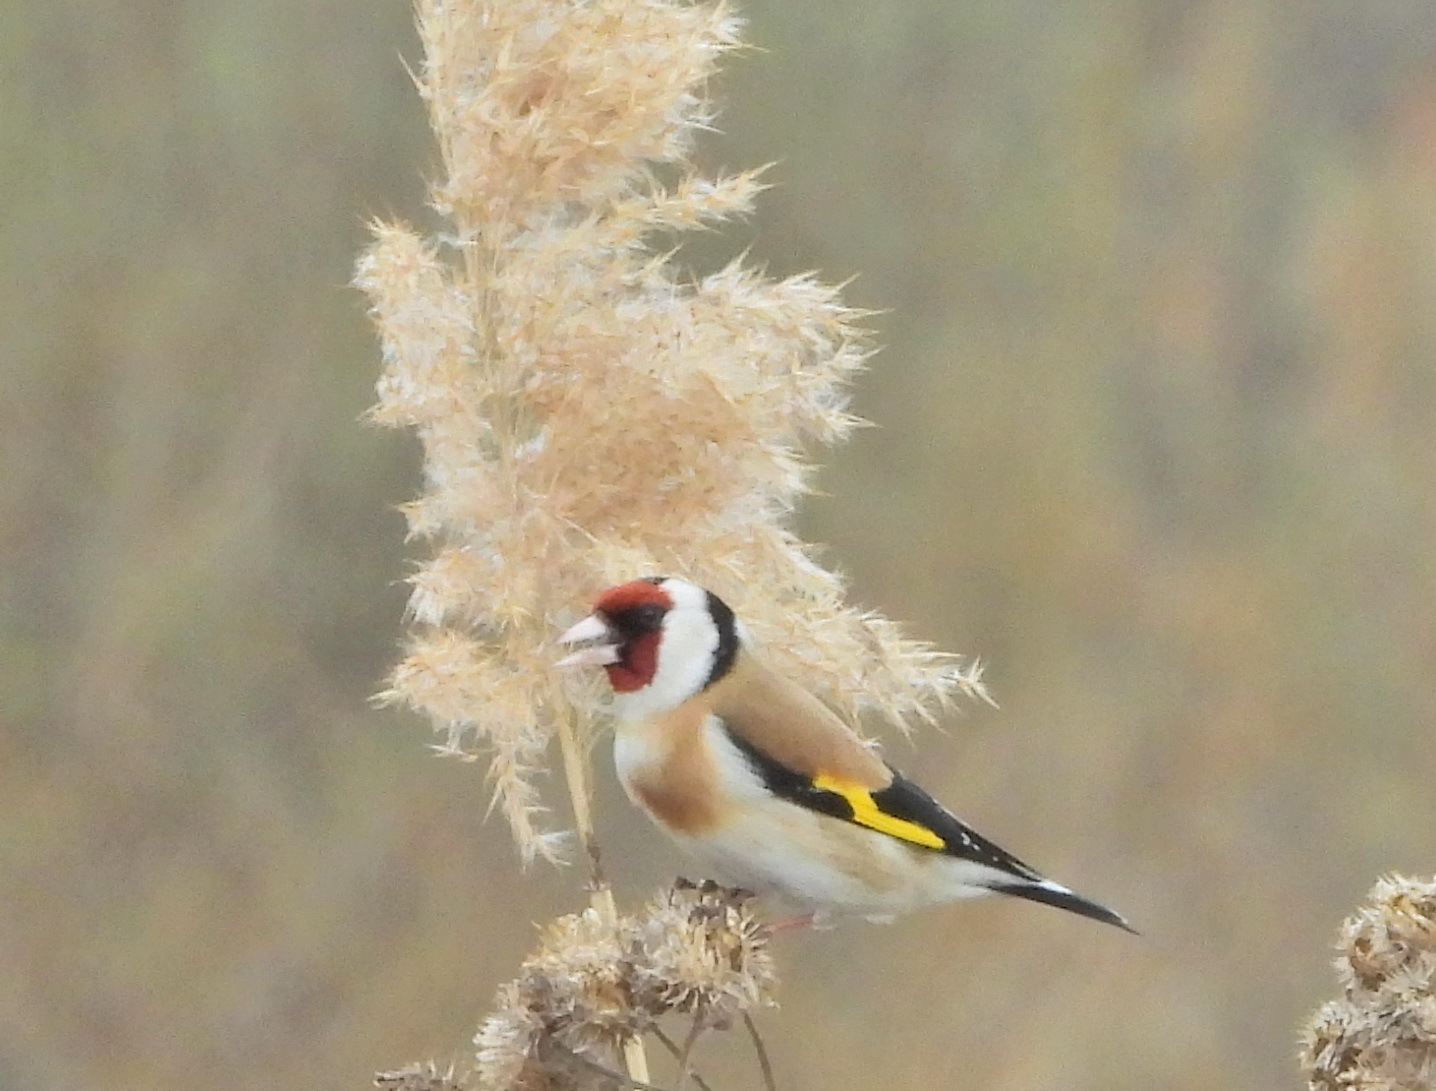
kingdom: Animalia
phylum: Chordata
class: Aves
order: Passeriformes
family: Fringillidae
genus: Carduelis
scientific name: Carduelis carduelis
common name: European goldfinch
